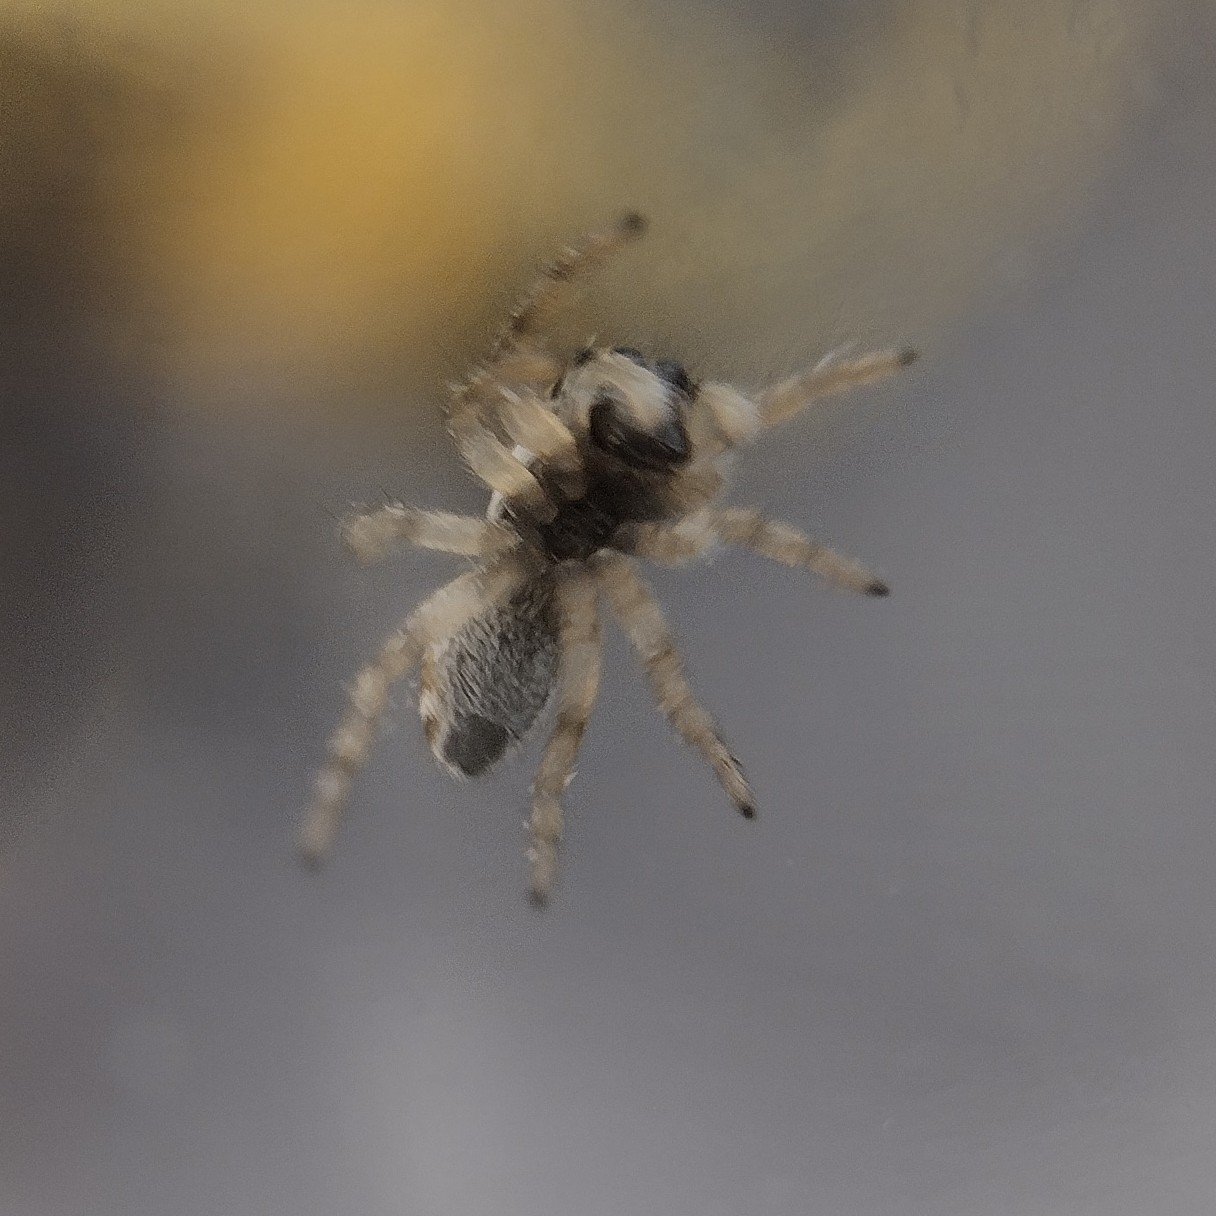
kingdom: Animalia
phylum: Arthropoda
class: Arachnida
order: Araneae
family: Salticidae
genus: Salticus
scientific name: Salticus scenicus
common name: Zebra jumper
